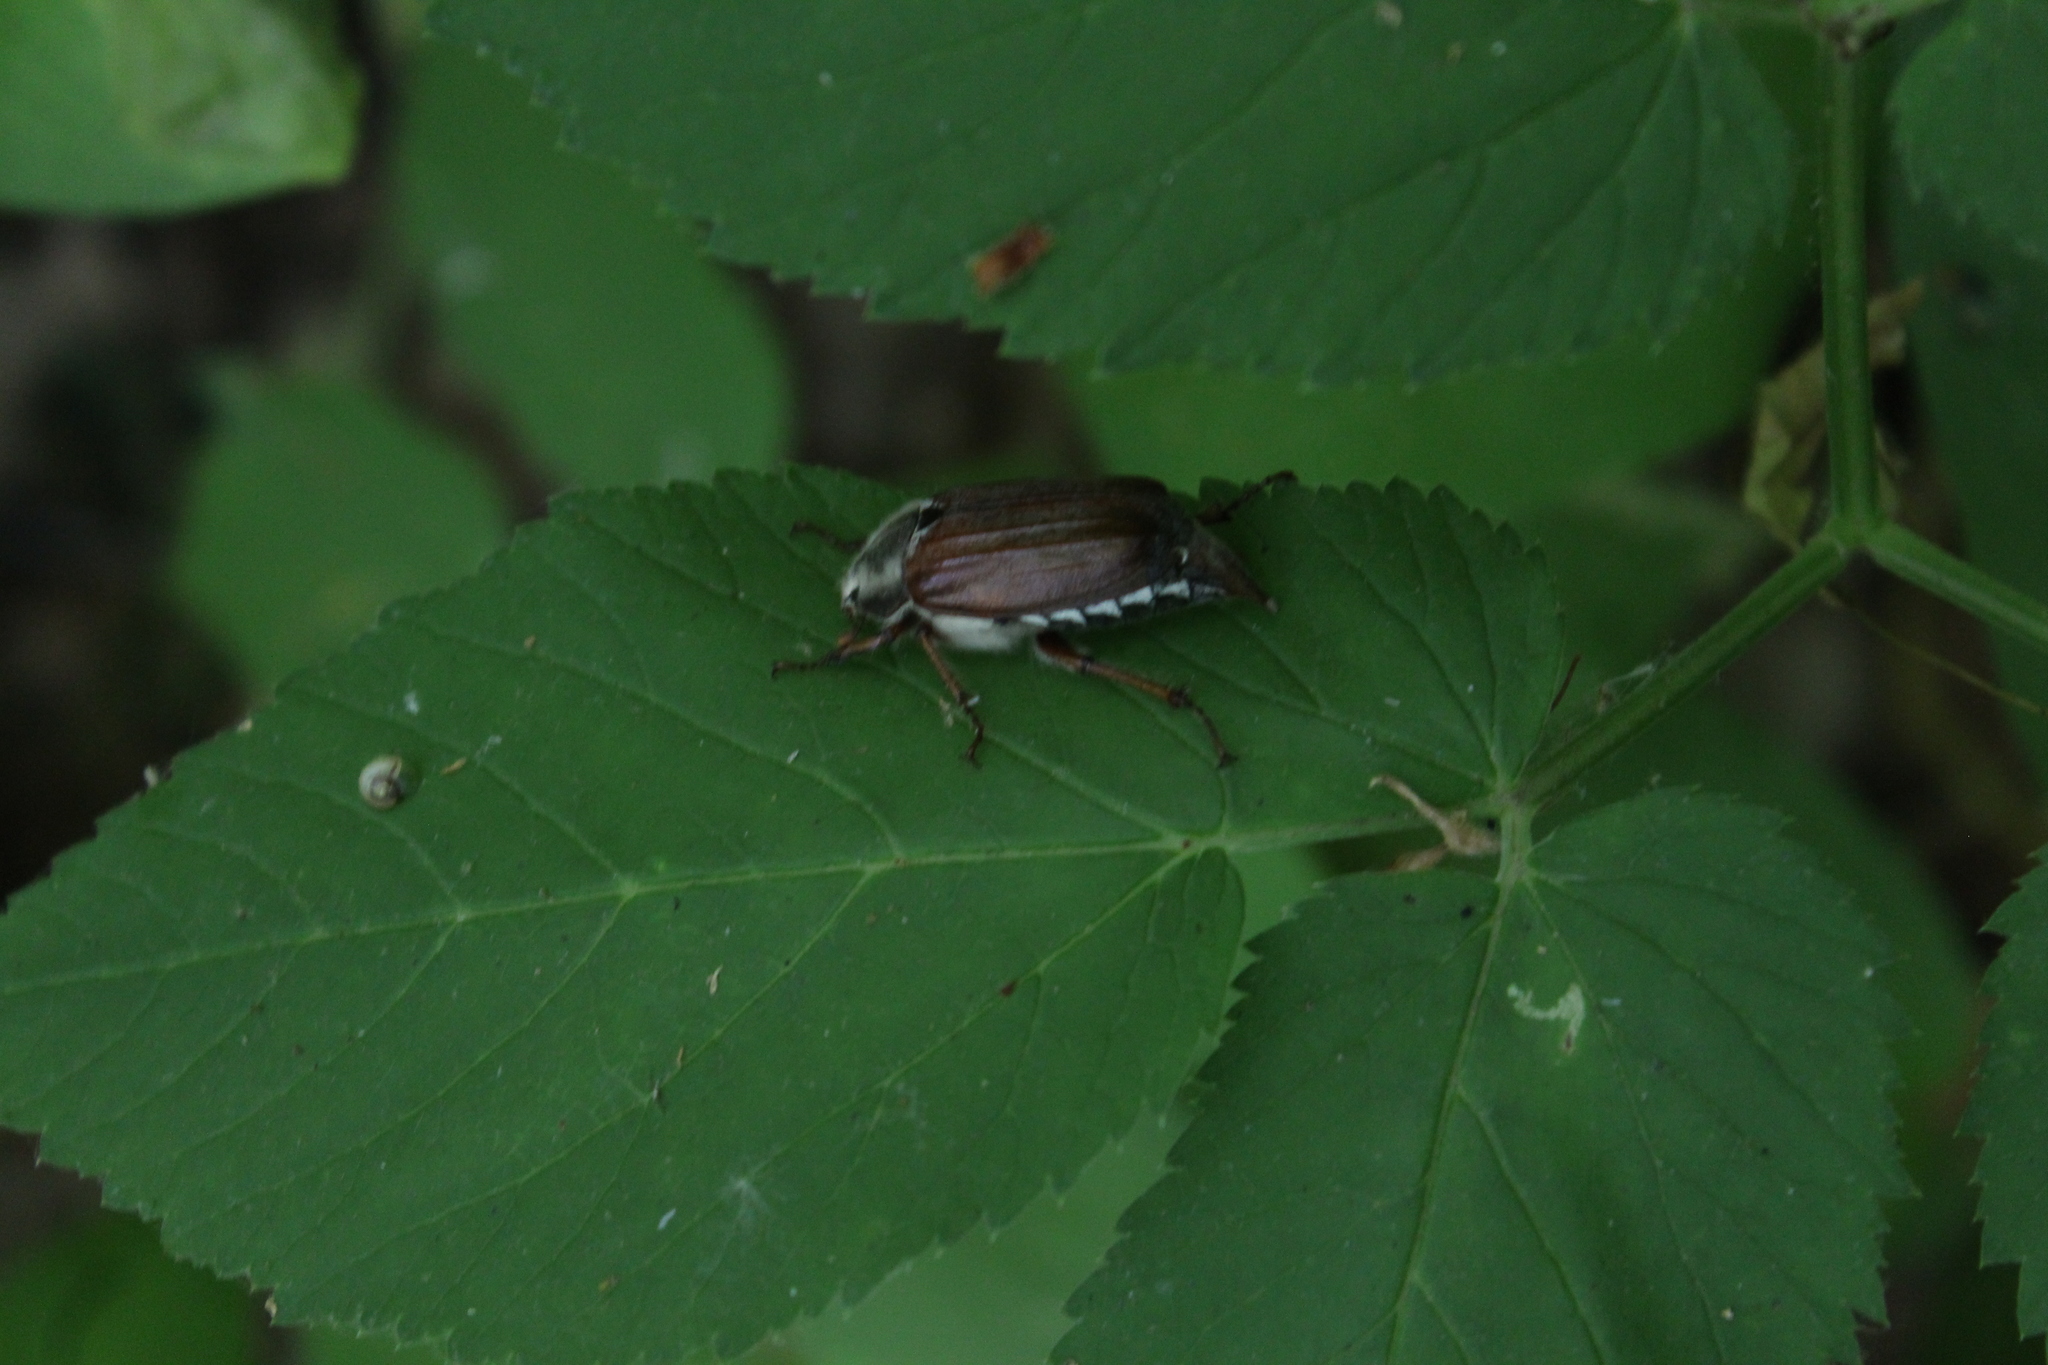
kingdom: Animalia
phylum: Arthropoda
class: Insecta
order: Coleoptera
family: Scarabaeidae
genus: Melolontha
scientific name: Melolontha melolontha
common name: Cockchafer maybeetle
